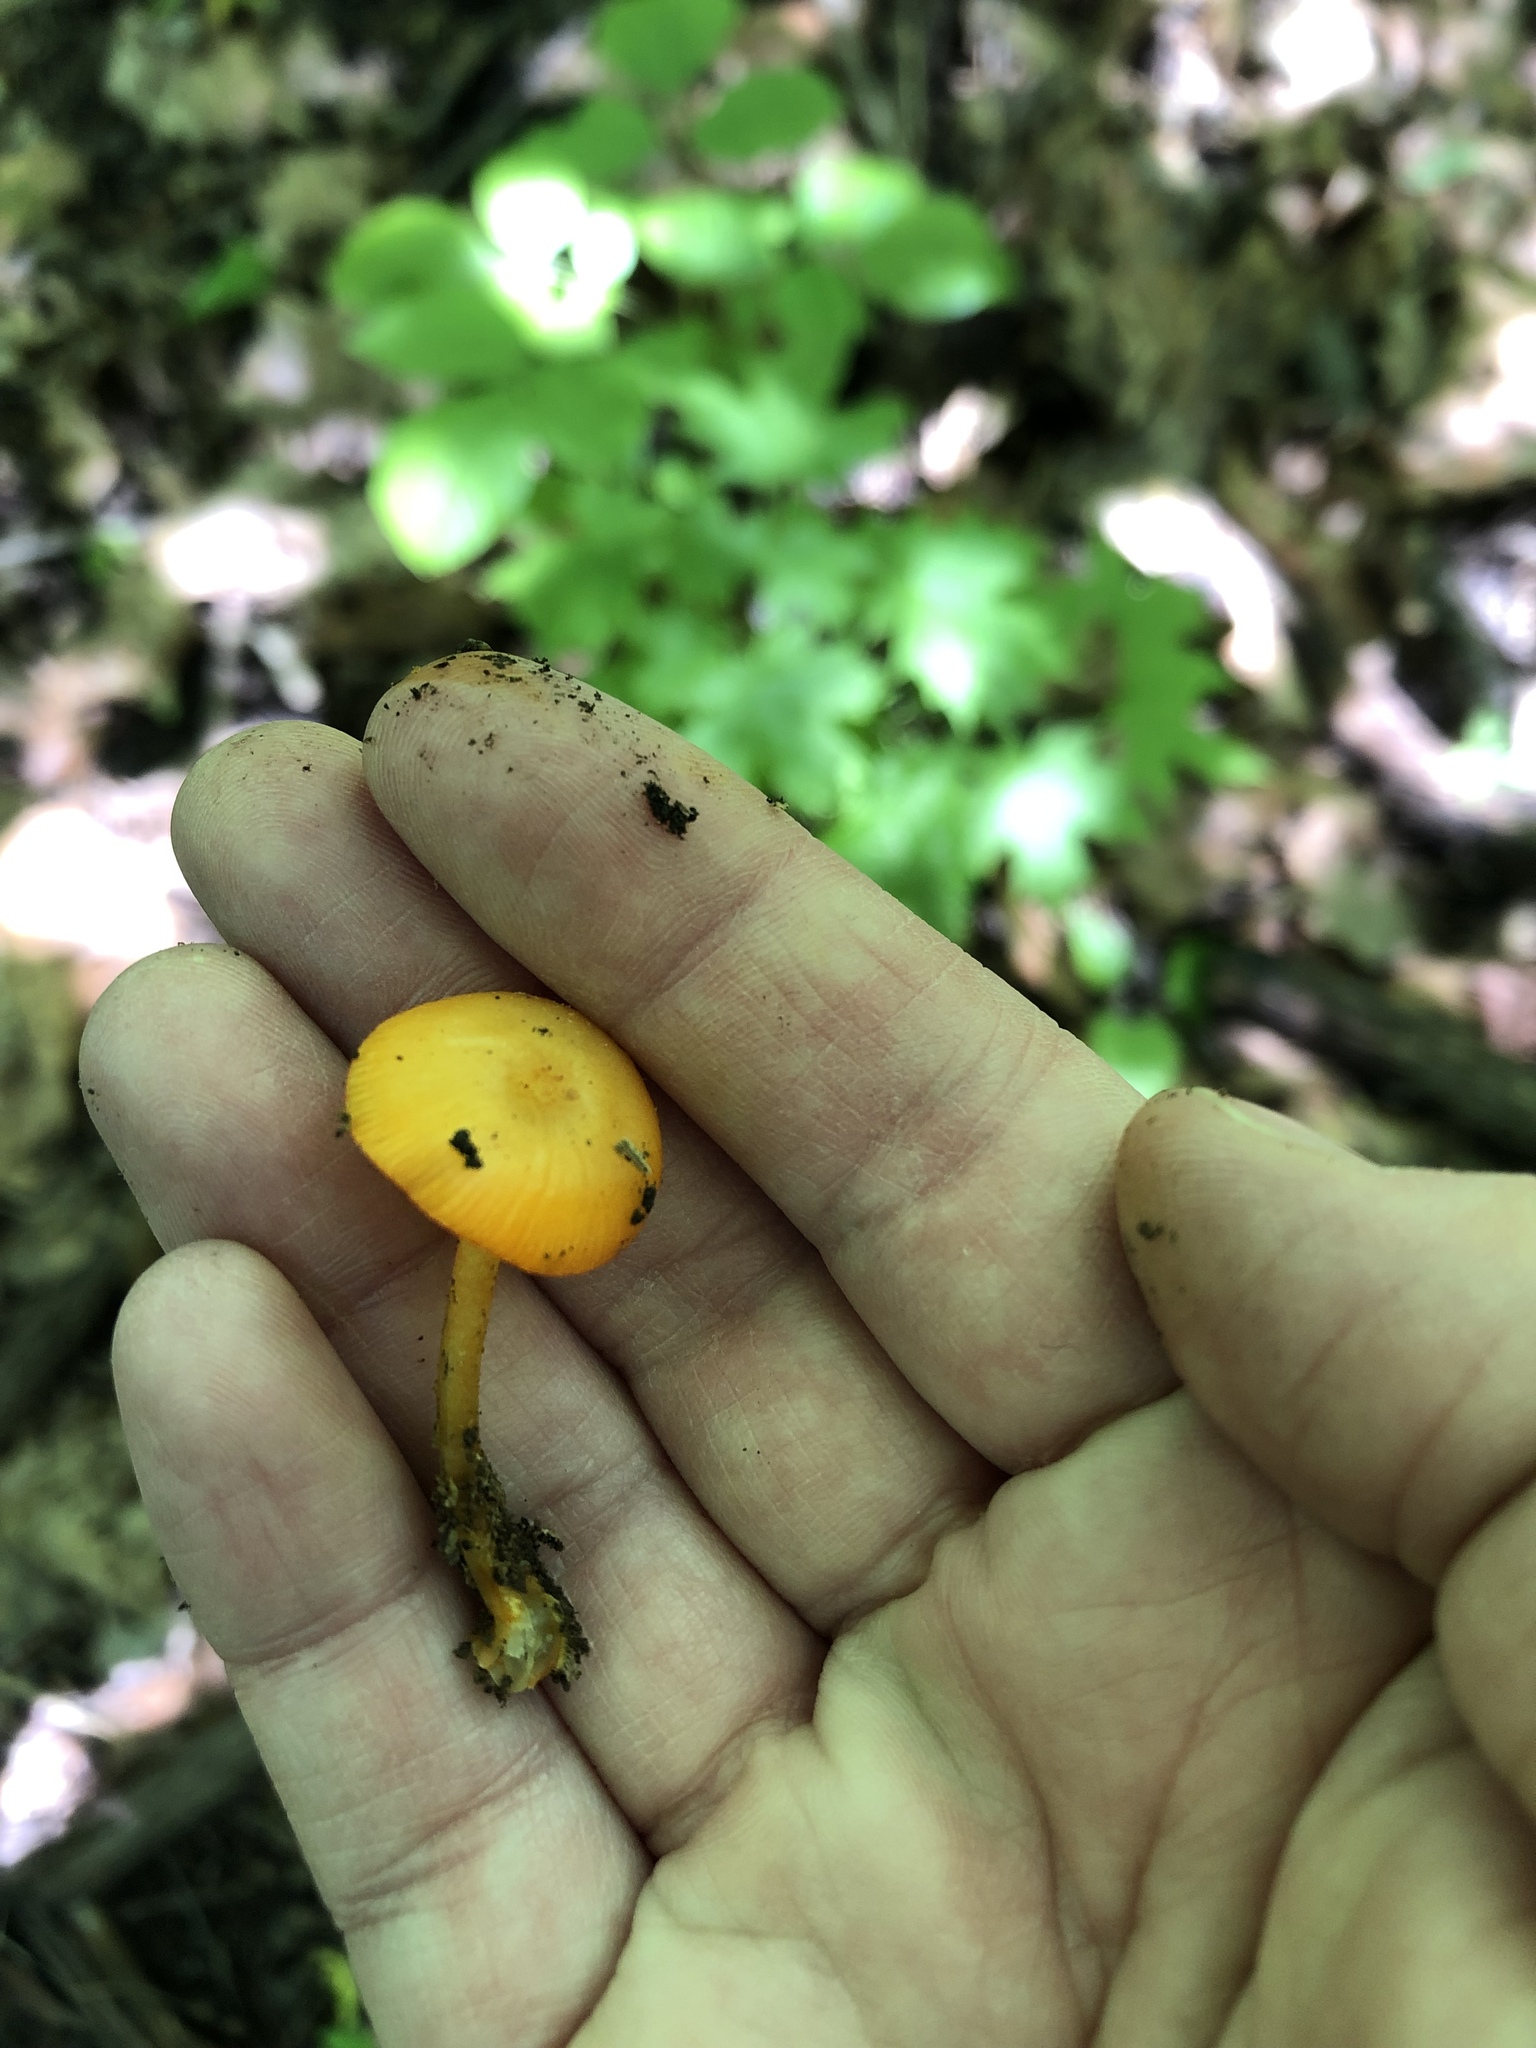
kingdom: Fungi
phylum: Basidiomycota
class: Agaricomycetes
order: Agaricales
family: Mycenaceae
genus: Mycena
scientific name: Mycena leaiana
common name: Orange mycena
